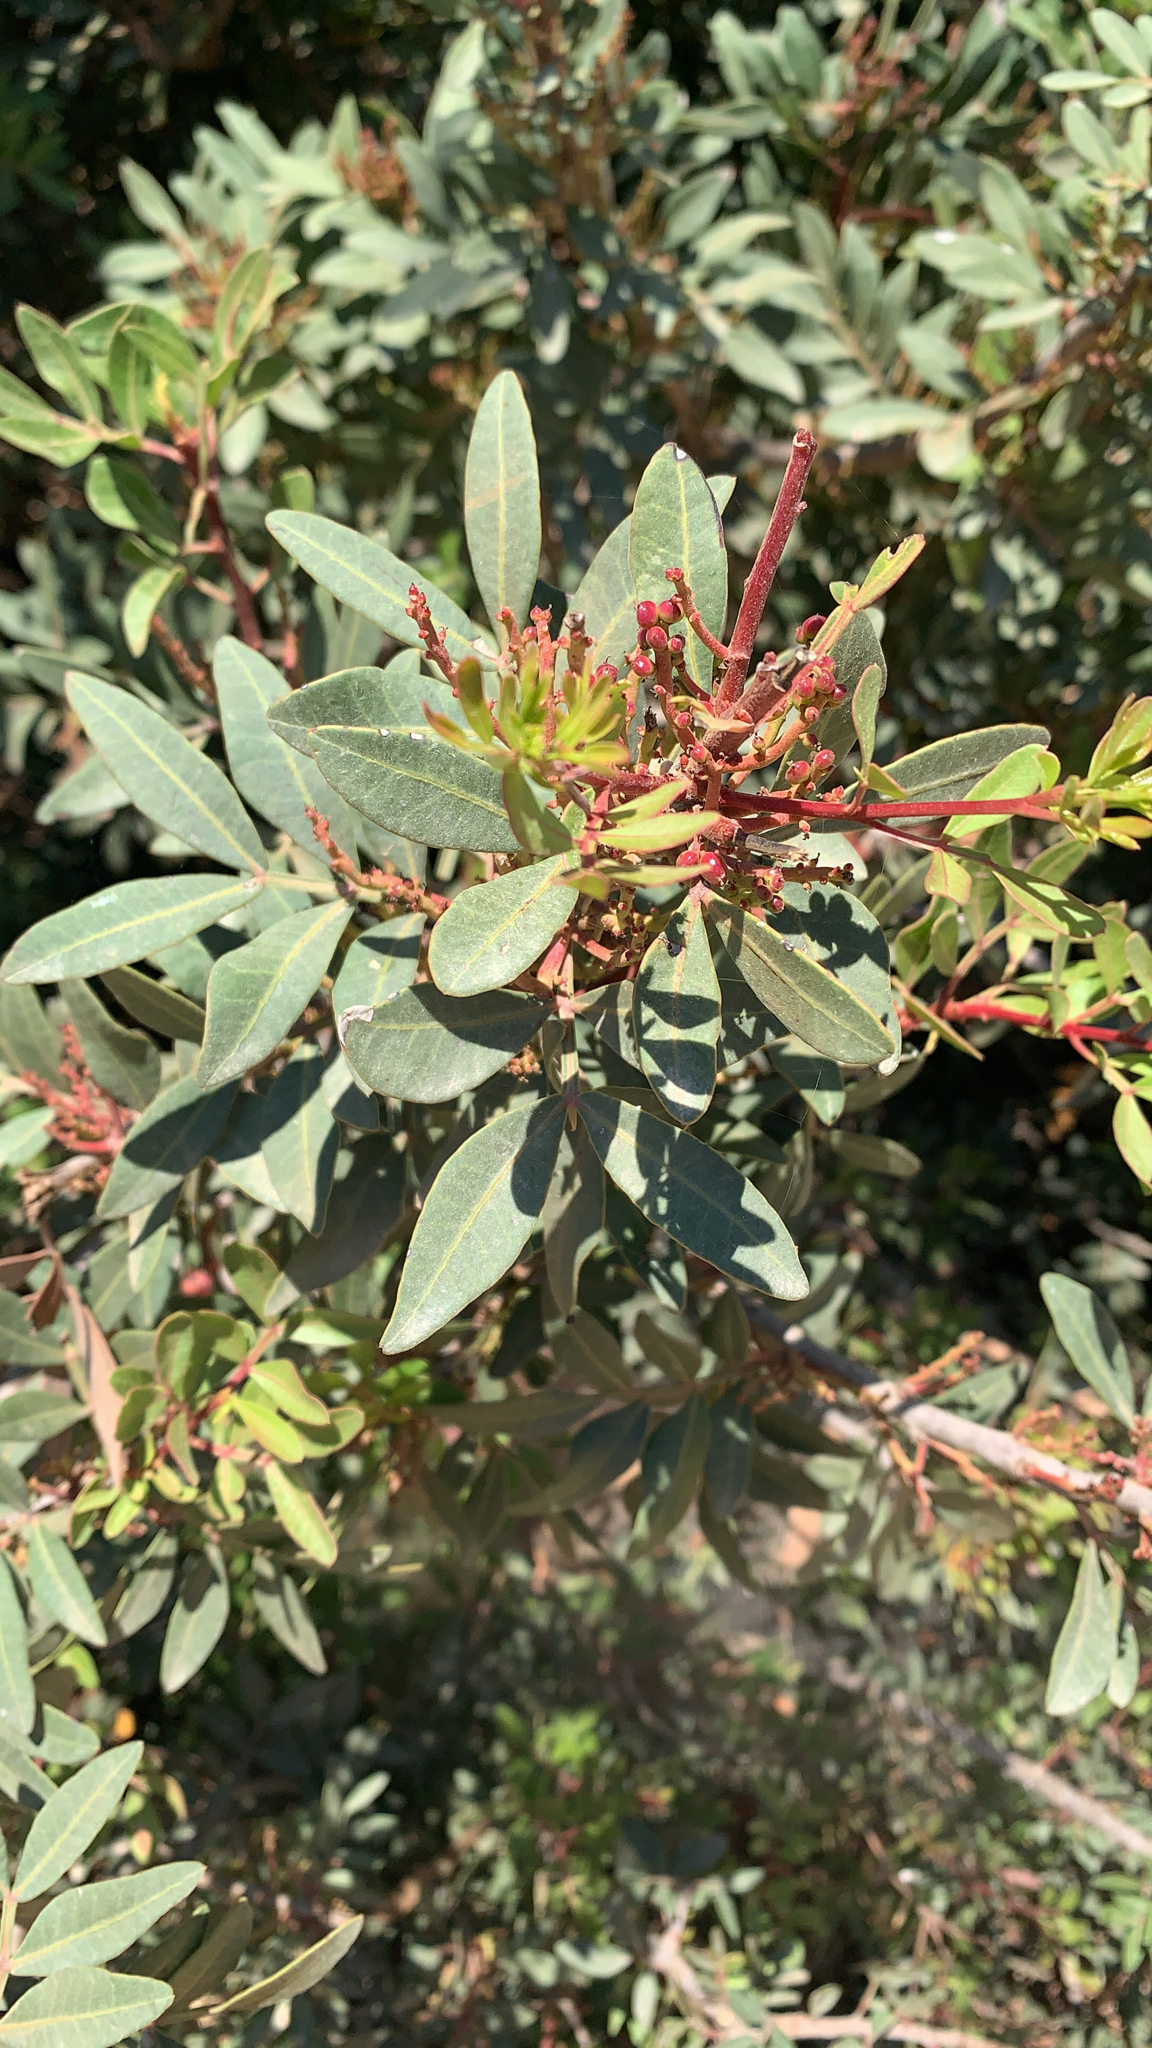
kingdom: Plantae
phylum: Tracheophyta
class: Magnoliopsida
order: Sapindales
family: Anacardiaceae
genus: Pistacia
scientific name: Pistacia lentiscus
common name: Lentisk
